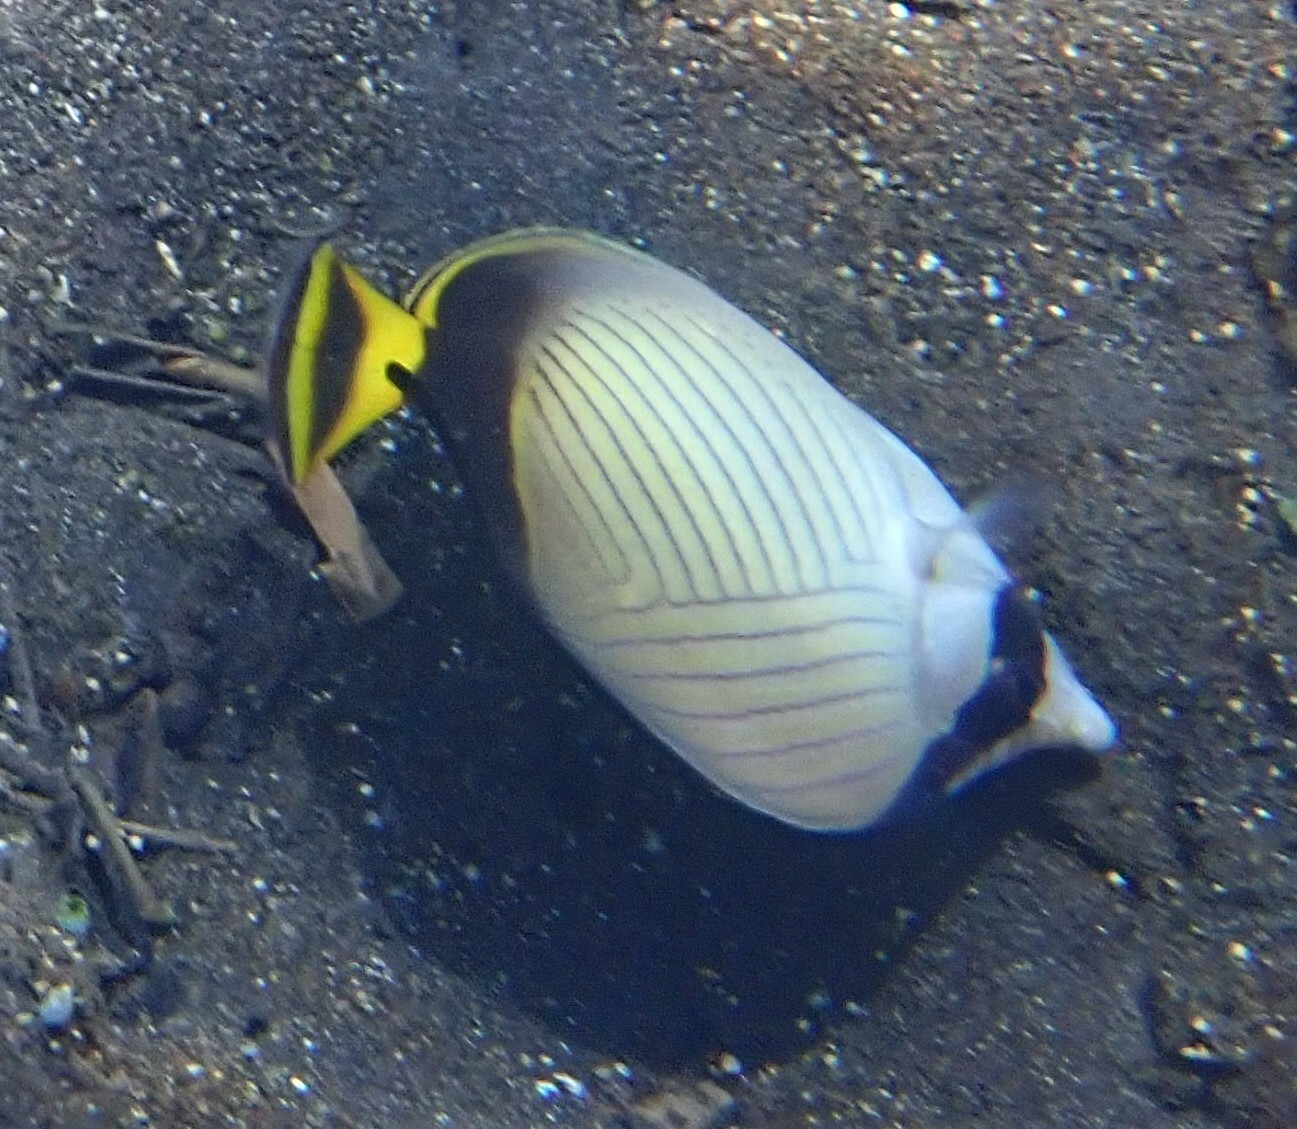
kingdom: Animalia
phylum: Chordata
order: Perciformes
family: Chaetodontidae
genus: Chaetodon
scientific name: Chaetodon decussatus
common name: Indian vagabond butterflyfish
